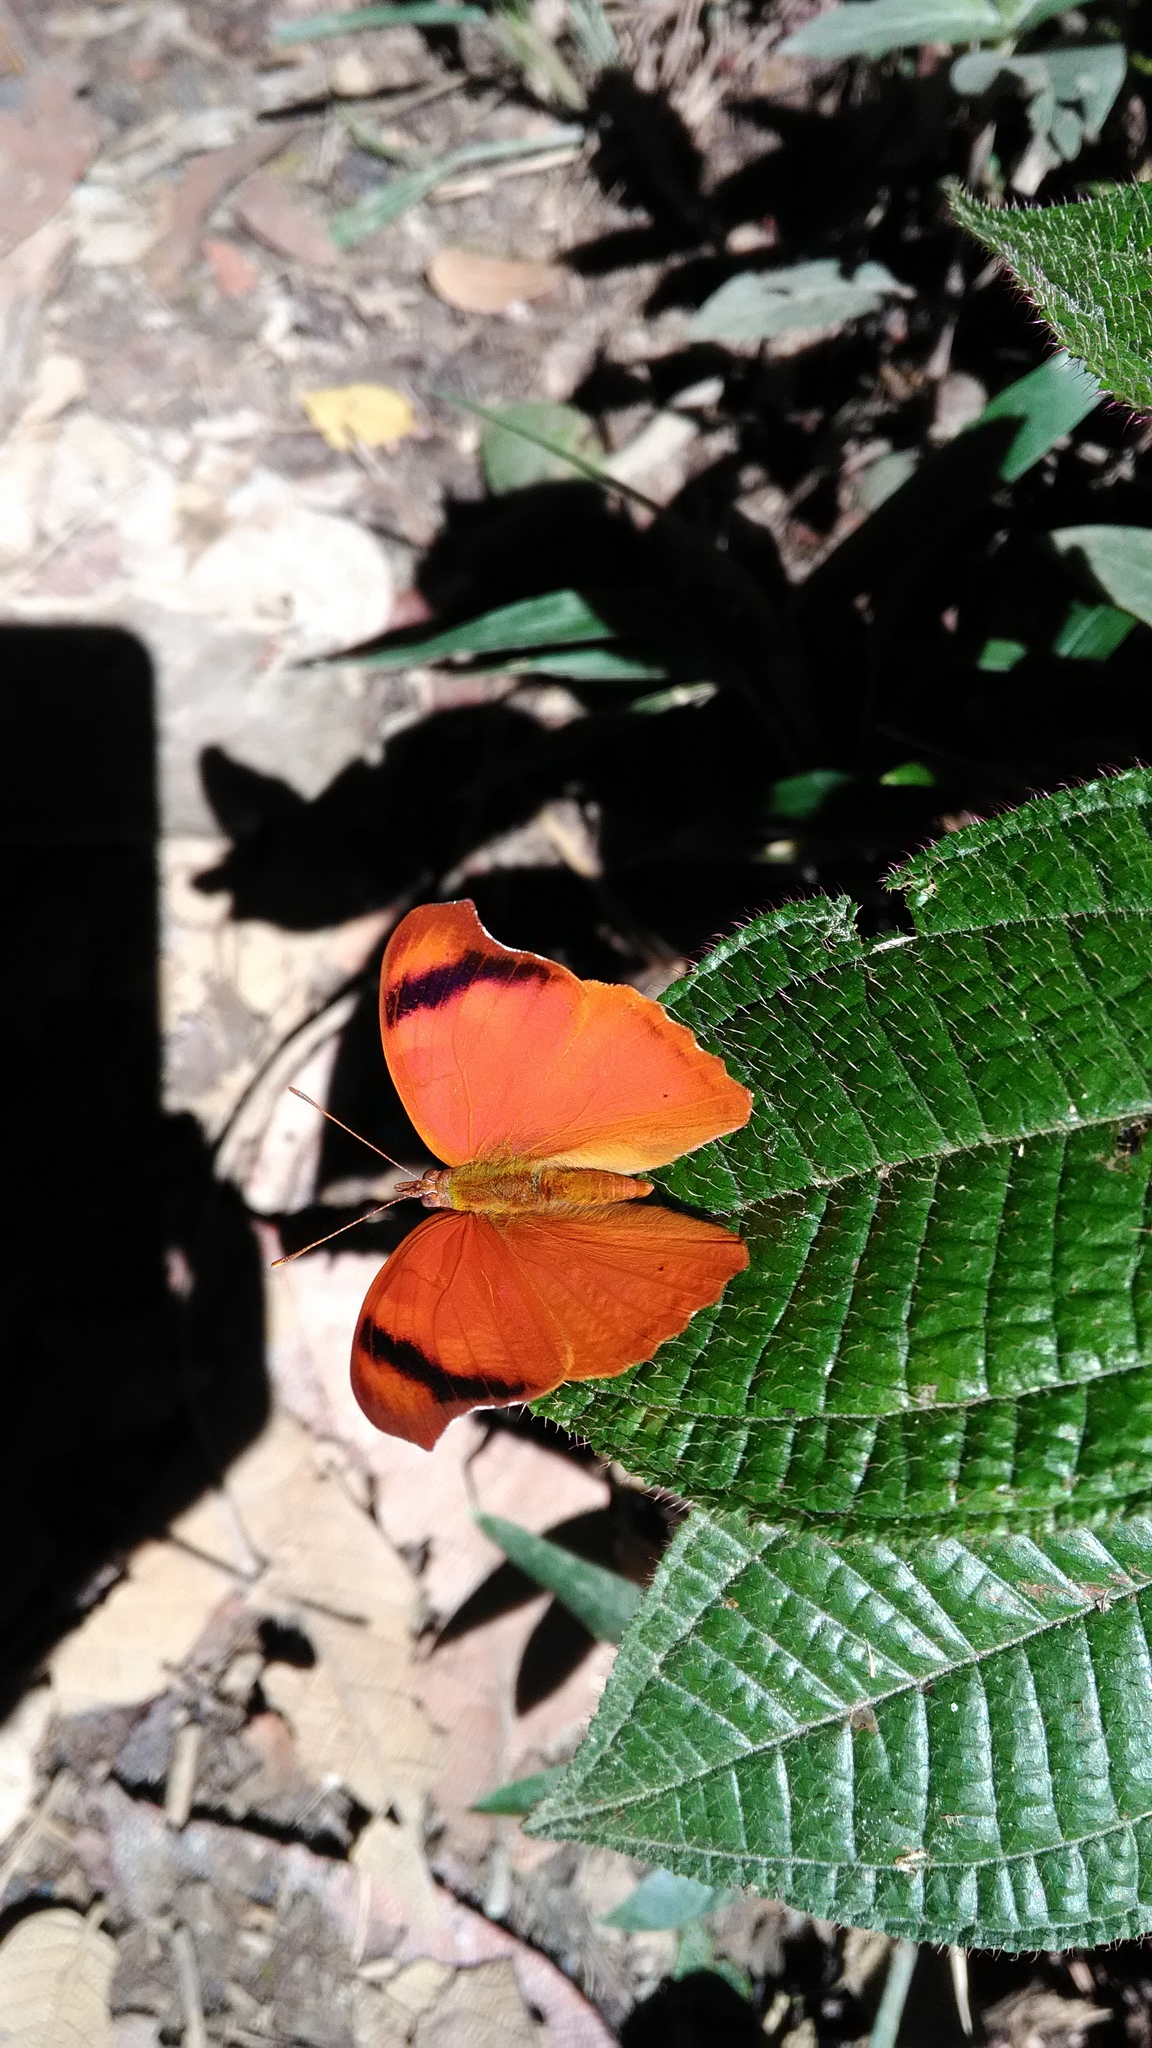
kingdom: Animalia
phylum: Arthropoda
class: Insecta
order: Lepidoptera
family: Nymphalidae
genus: Temenis
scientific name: Temenis laothoe
